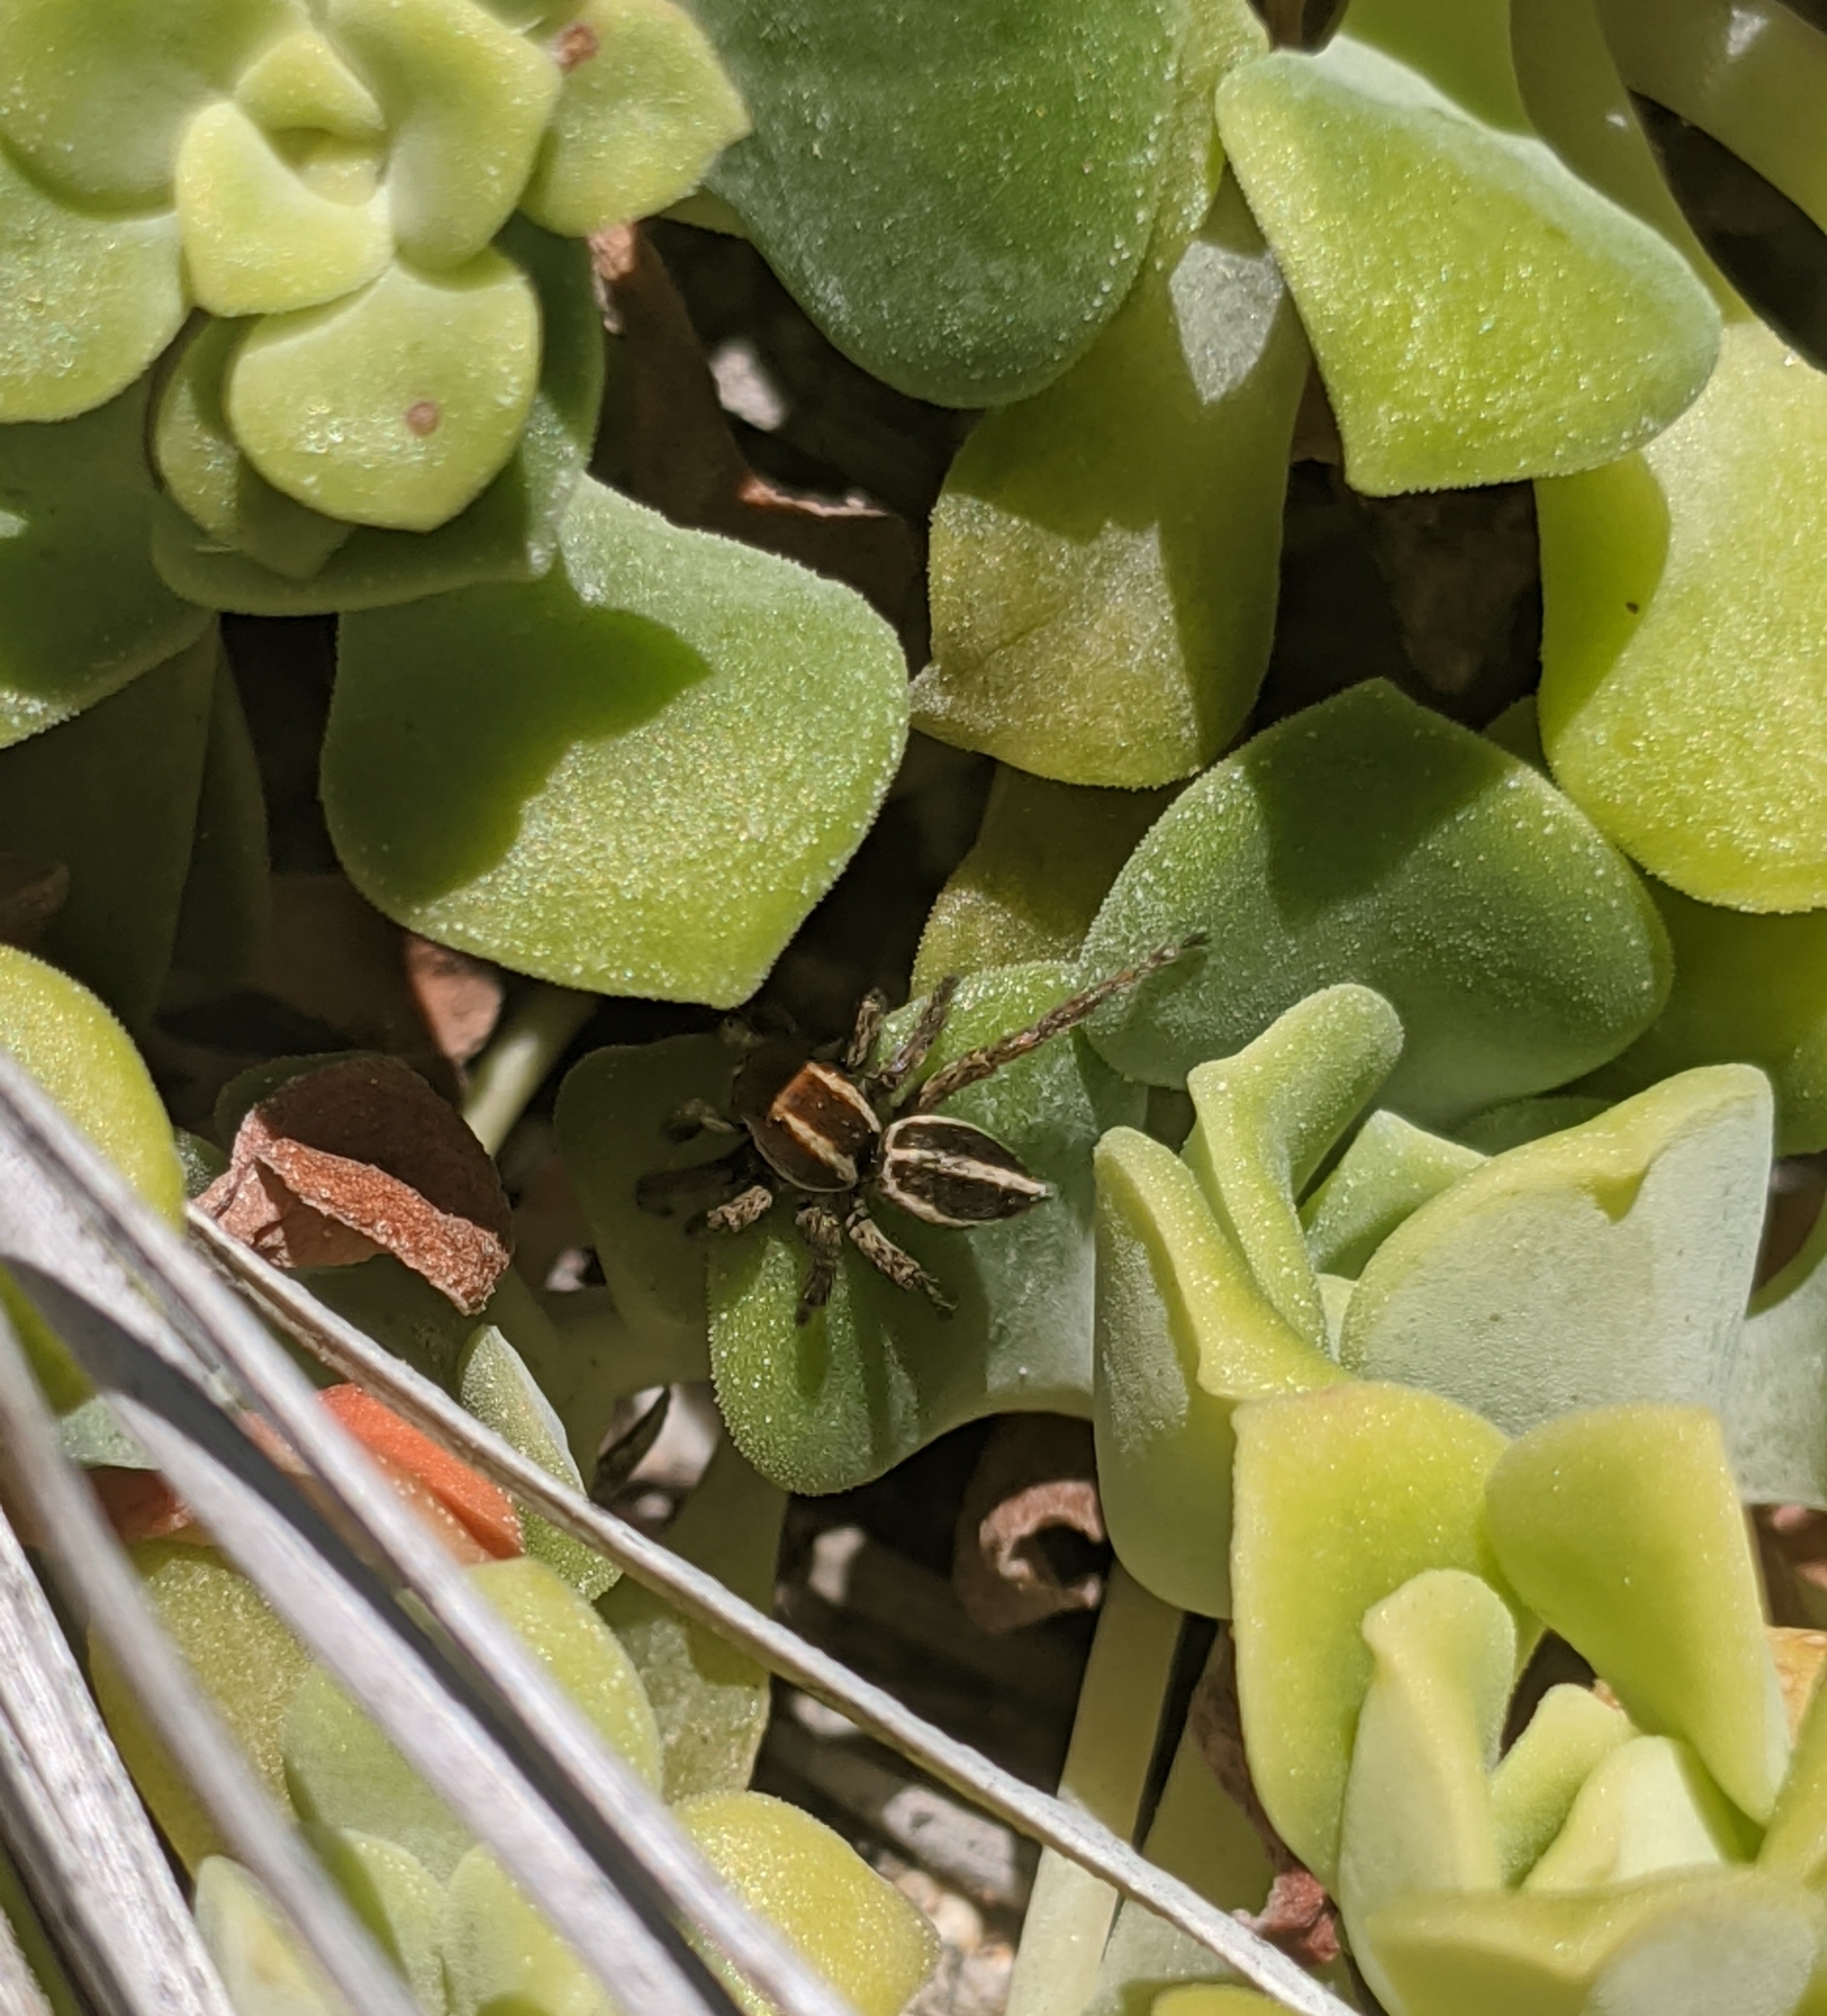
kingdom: Animalia
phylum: Arthropoda
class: Arachnida
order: Araneae
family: Salticidae
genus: Phlegra
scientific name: Phlegra hentzi
